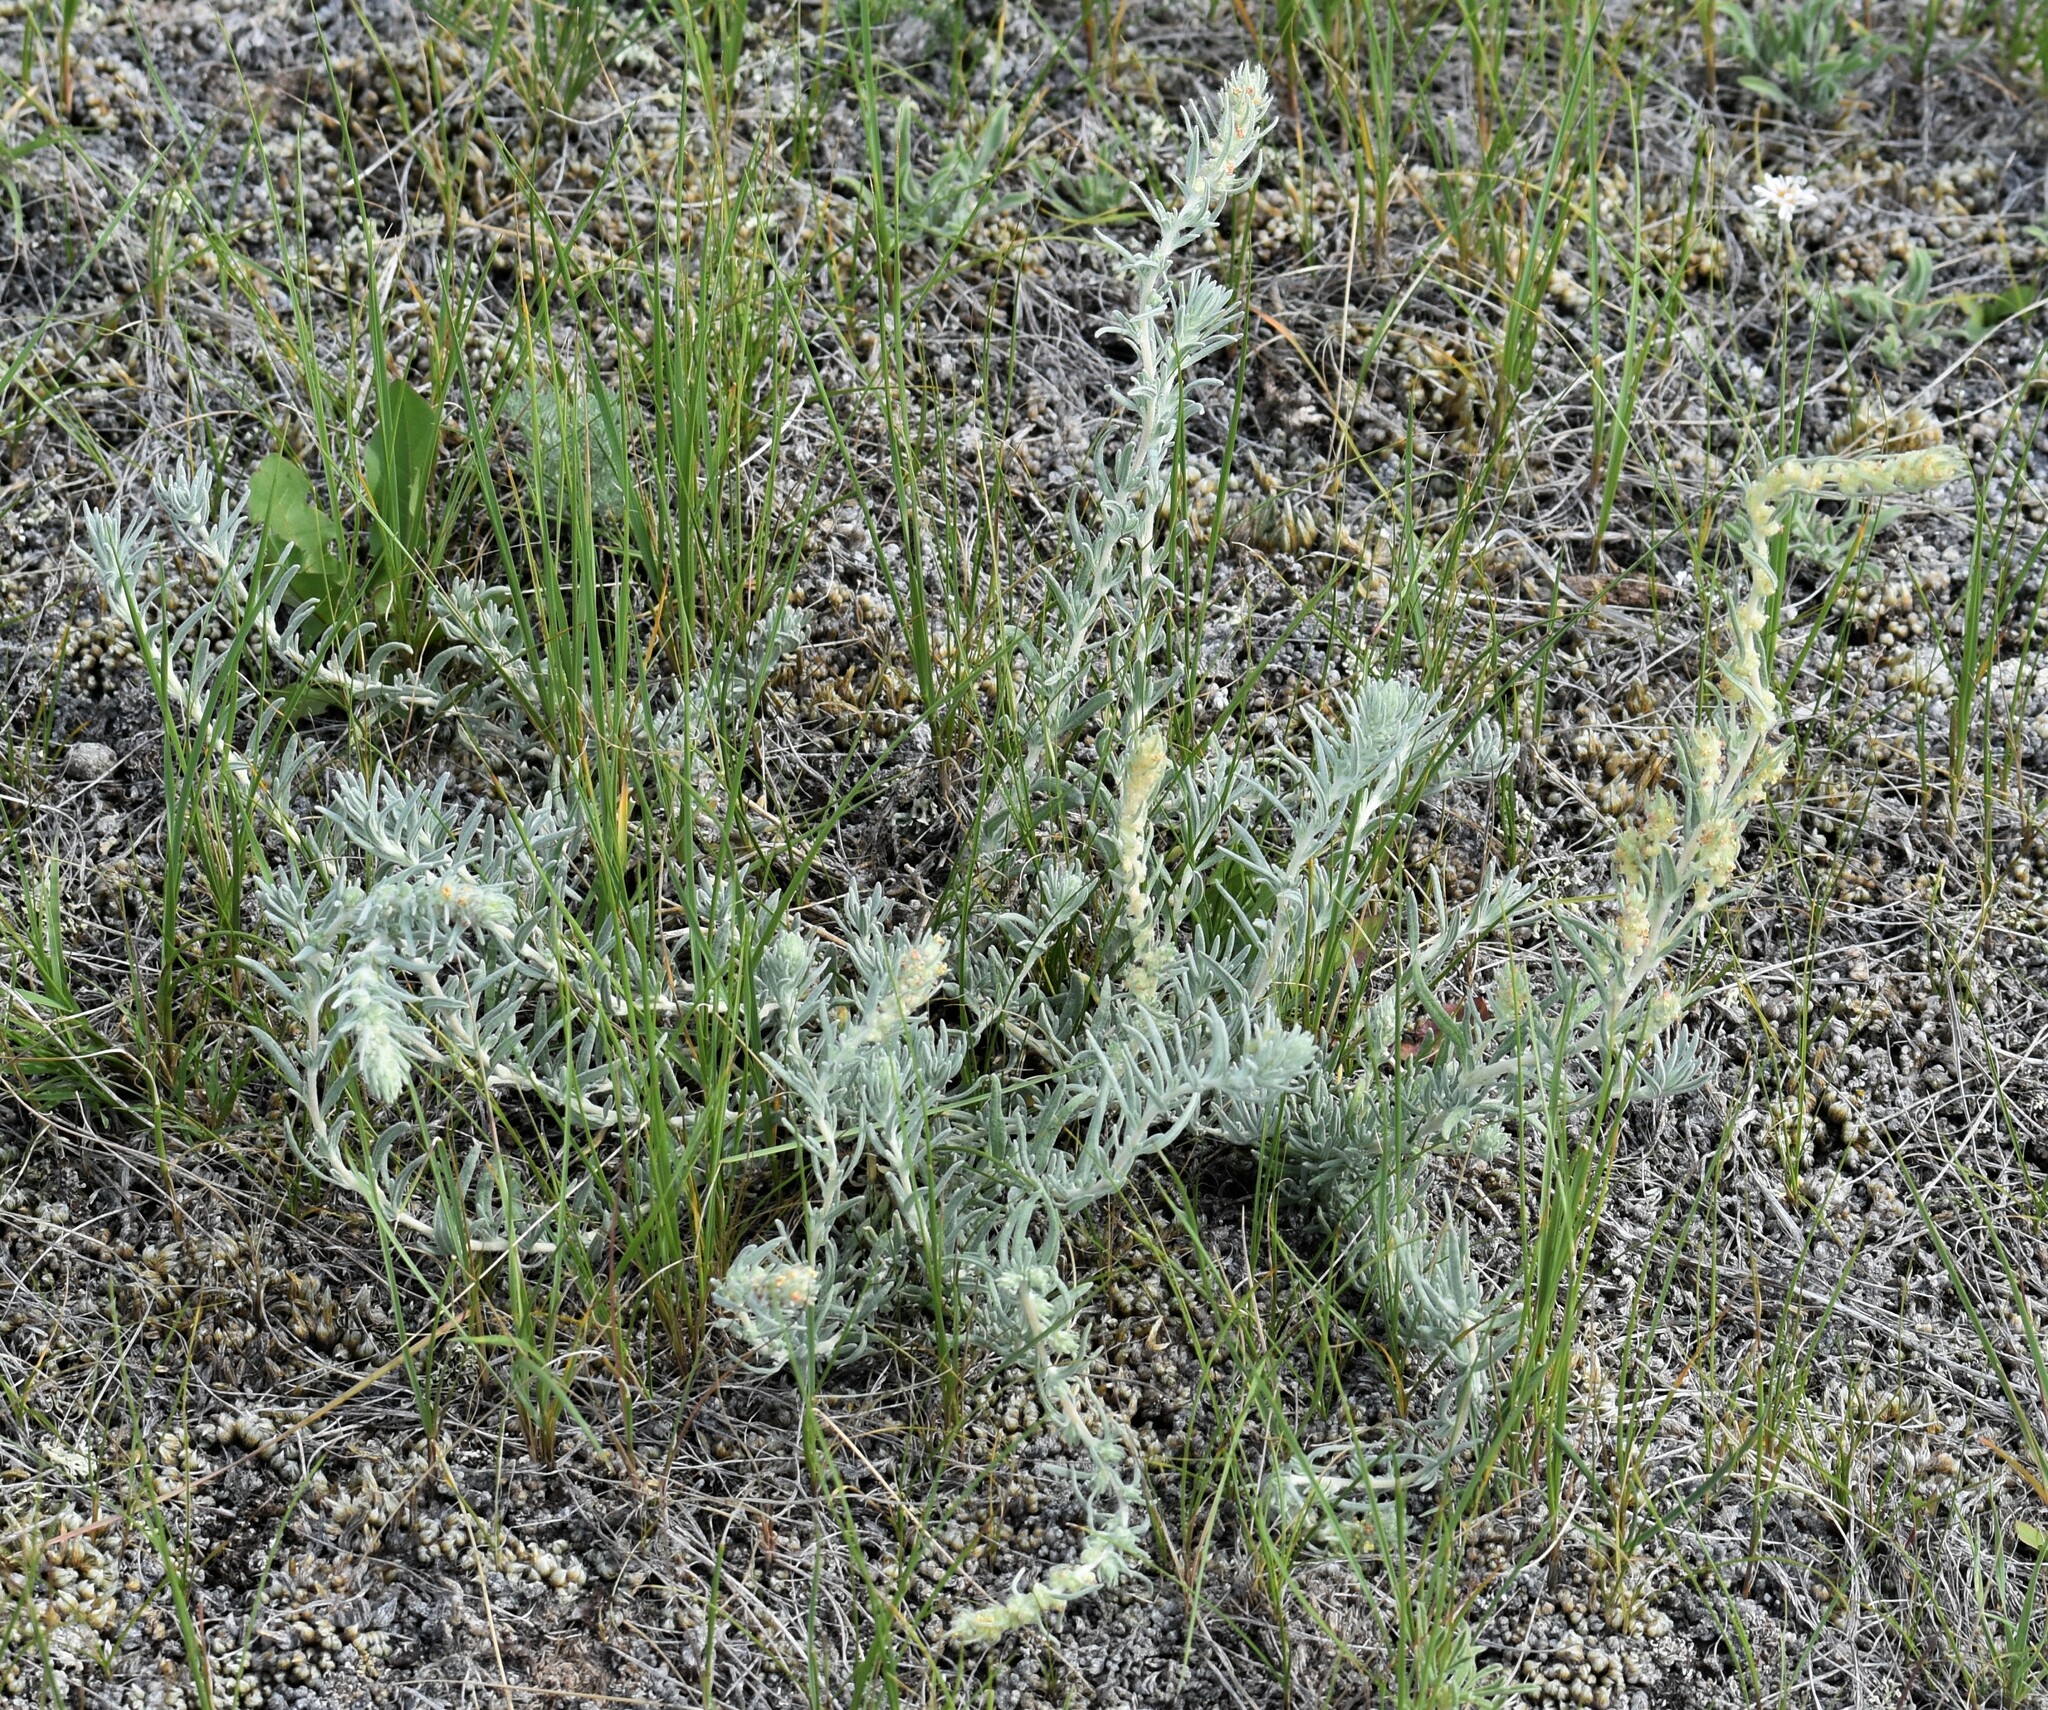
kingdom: Plantae
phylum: Tracheophyta
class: Magnoliopsida
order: Caryophyllales
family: Amaranthaceae
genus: Krascheninnikovia
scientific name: Krascheninnikovia lanata
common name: Winterfat
